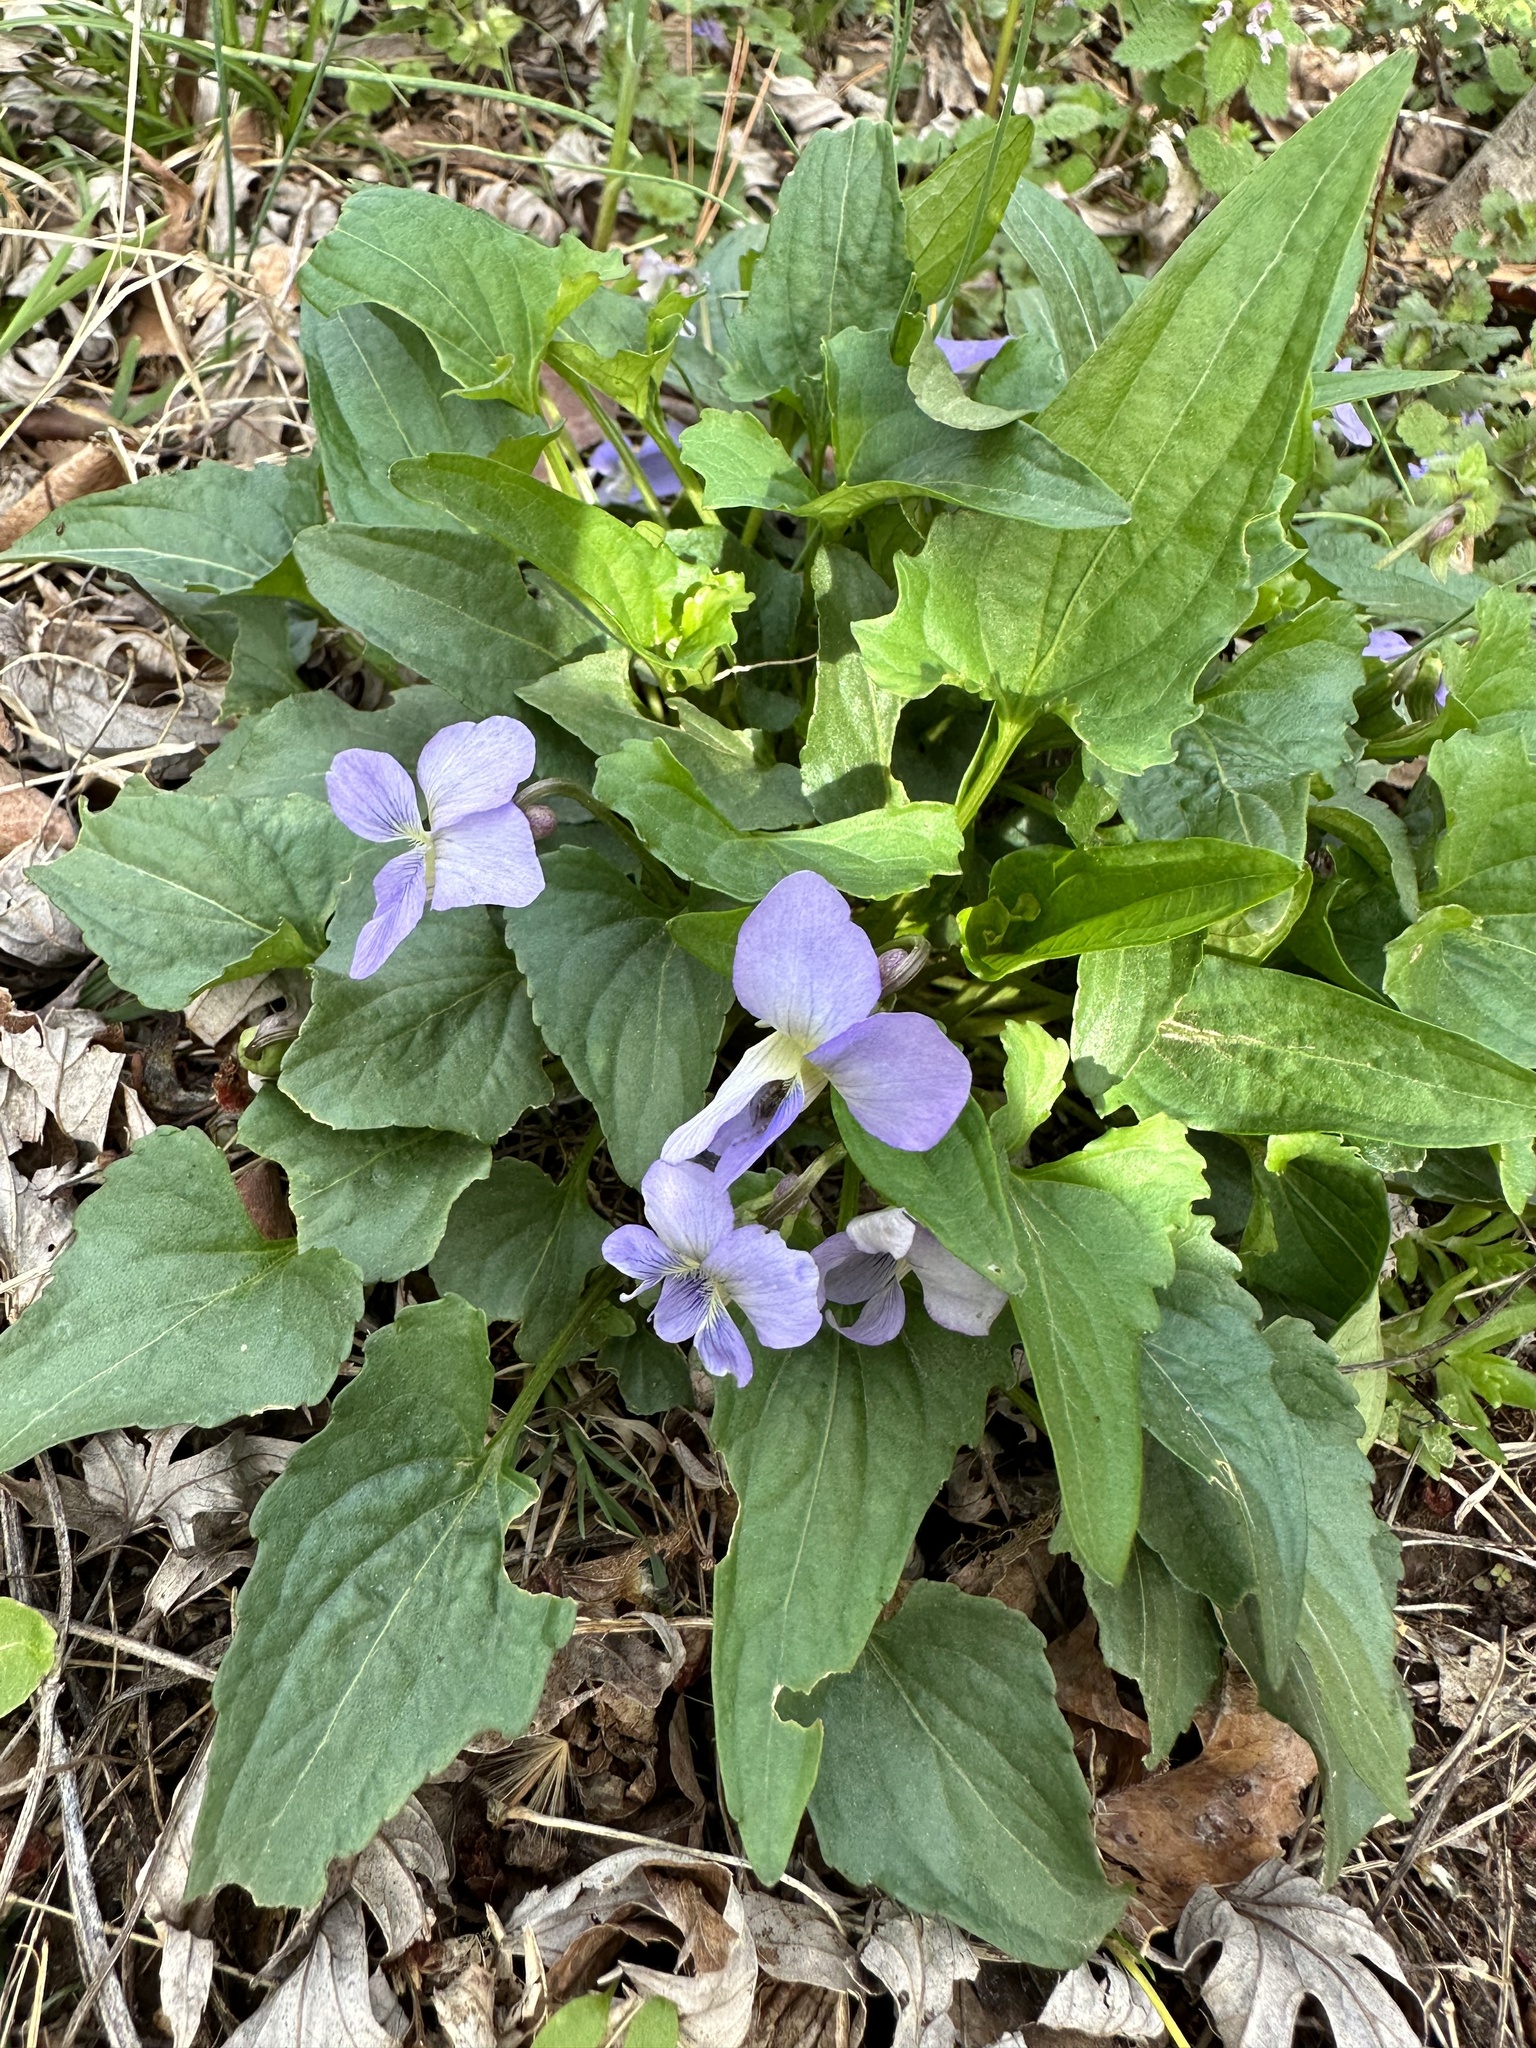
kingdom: Plantae
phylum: Tracheophyta
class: Magnoliopsida
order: Malpighiales
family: Violaceae
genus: Viola
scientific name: Viola sagittata
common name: Arrowhead violet
